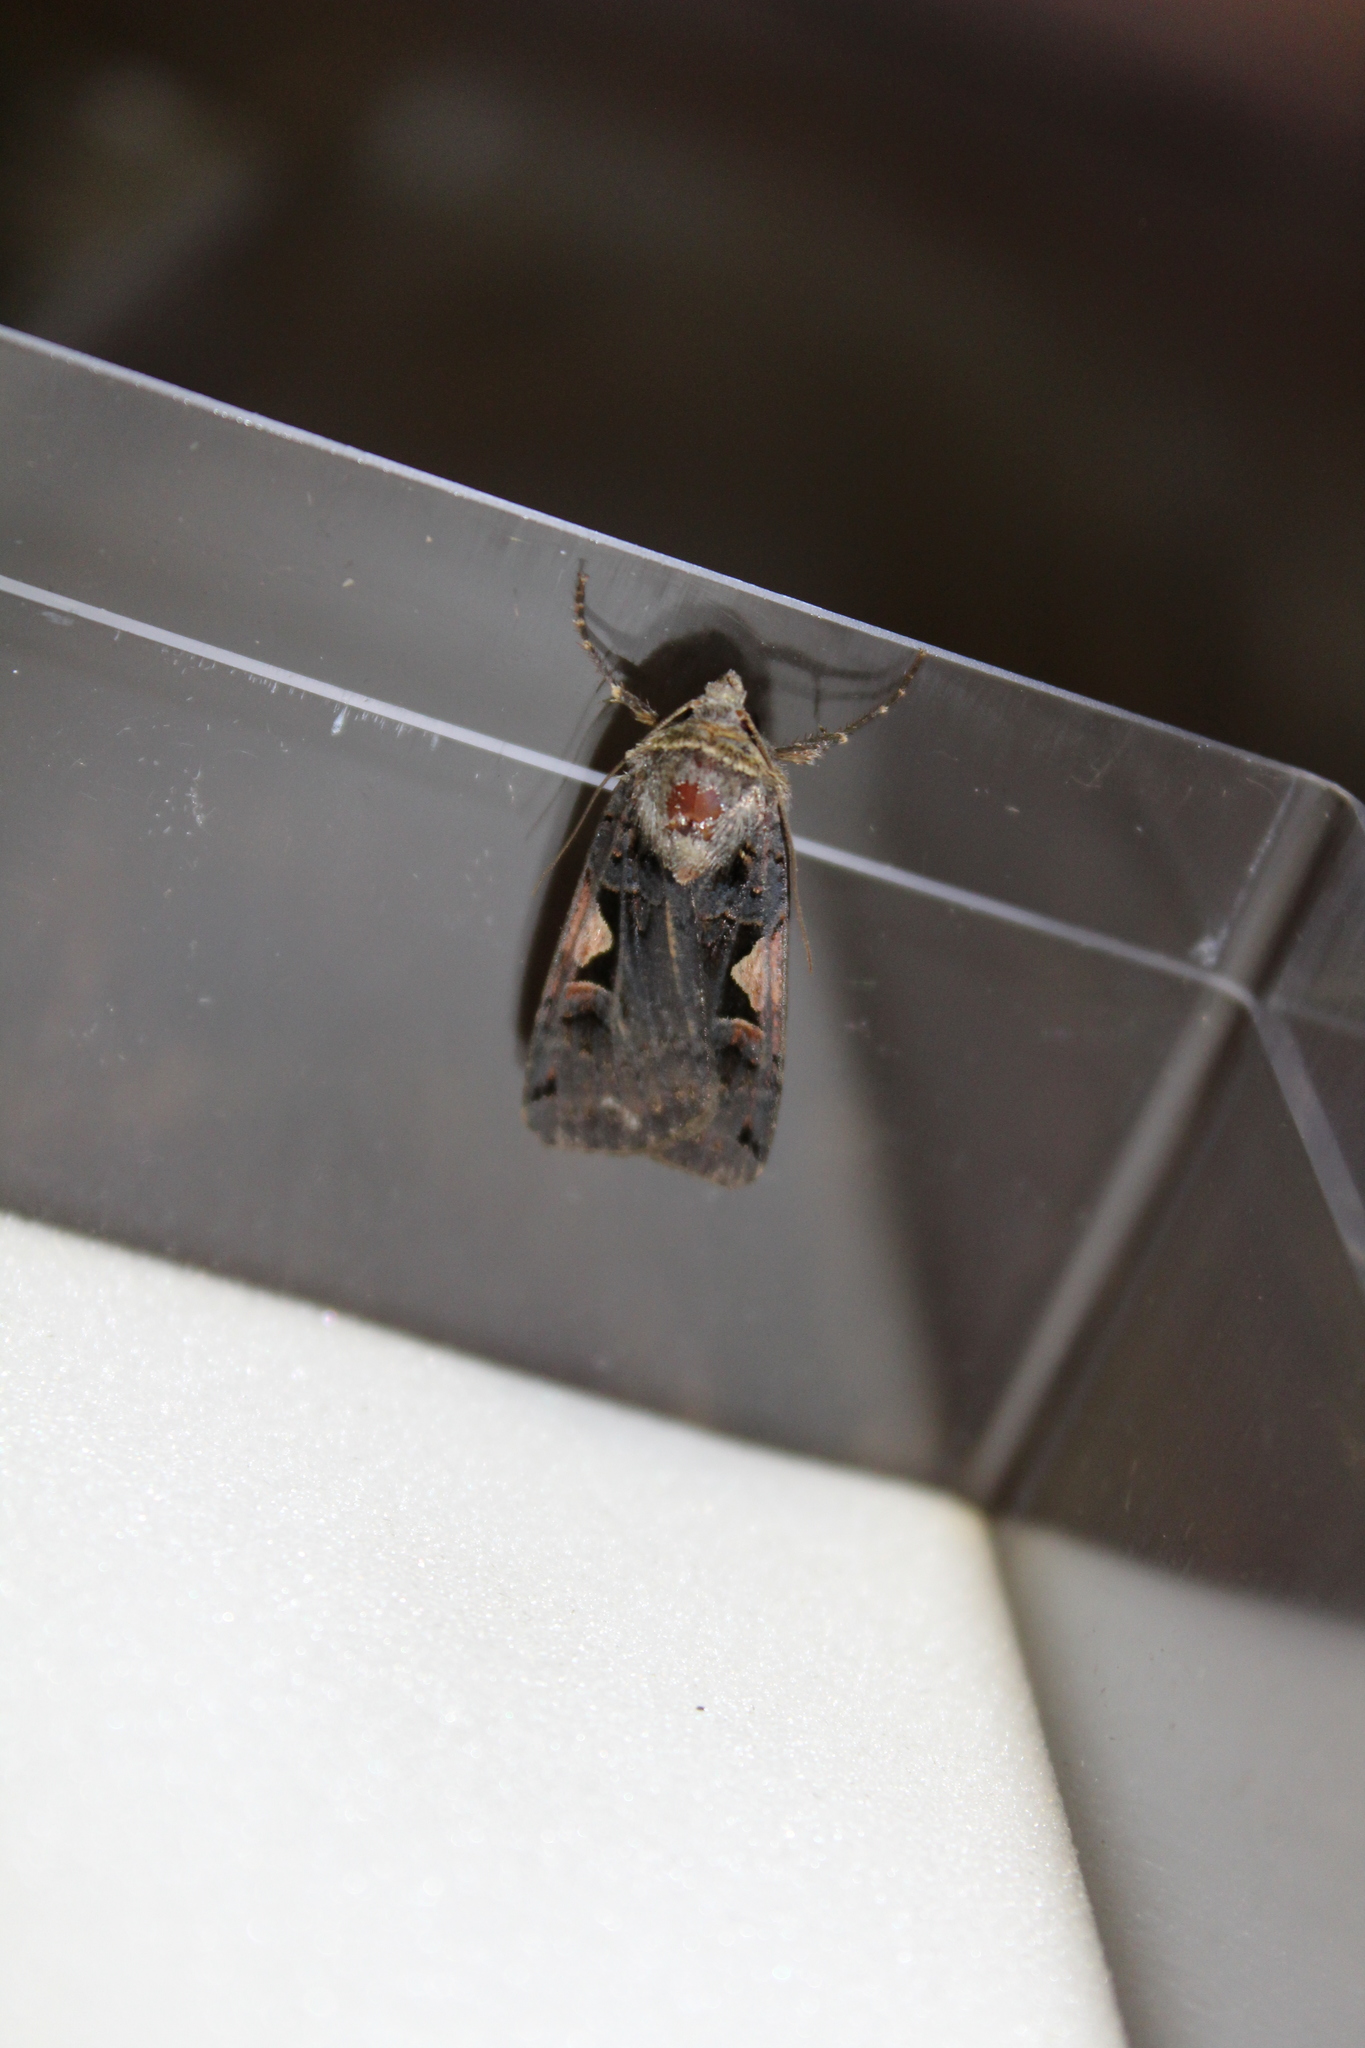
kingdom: Animalia
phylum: Arthropoda
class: Insecta
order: Lepidoptera
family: Noctuidae
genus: Xestia
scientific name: Xestia c-nigrum
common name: Setaceous hebrew character
